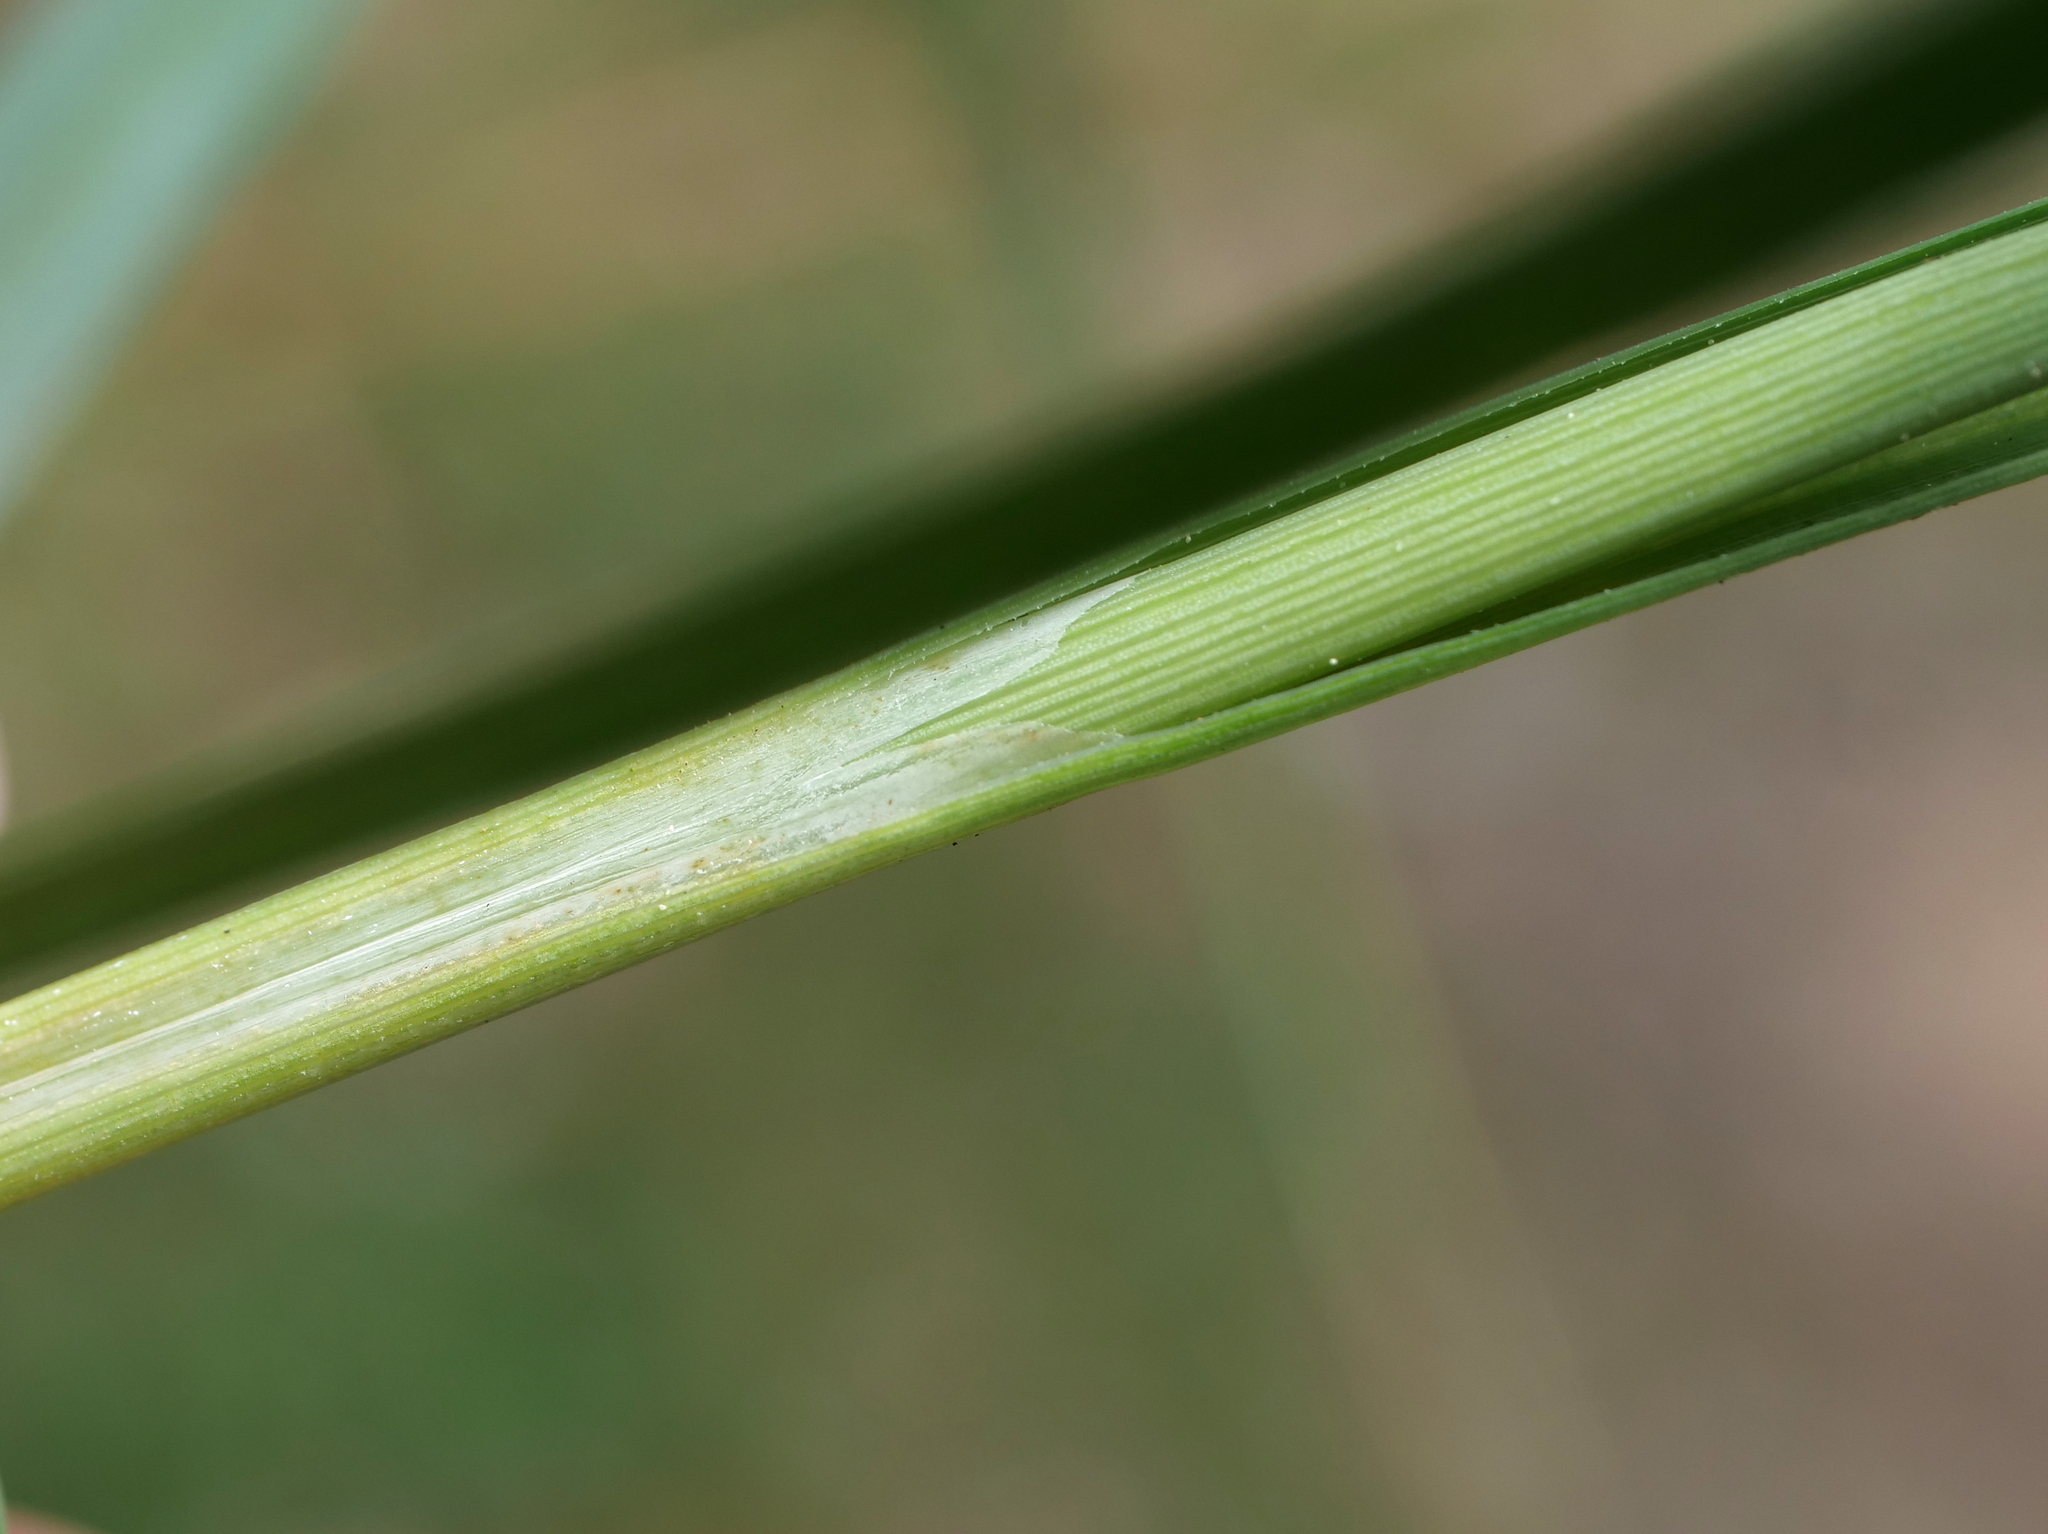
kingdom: Plantae
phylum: Tracheophyta
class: Liliopsida
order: Poales
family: Cyperaceae
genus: Carex
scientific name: Carex flacca
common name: Glaucous sedge
